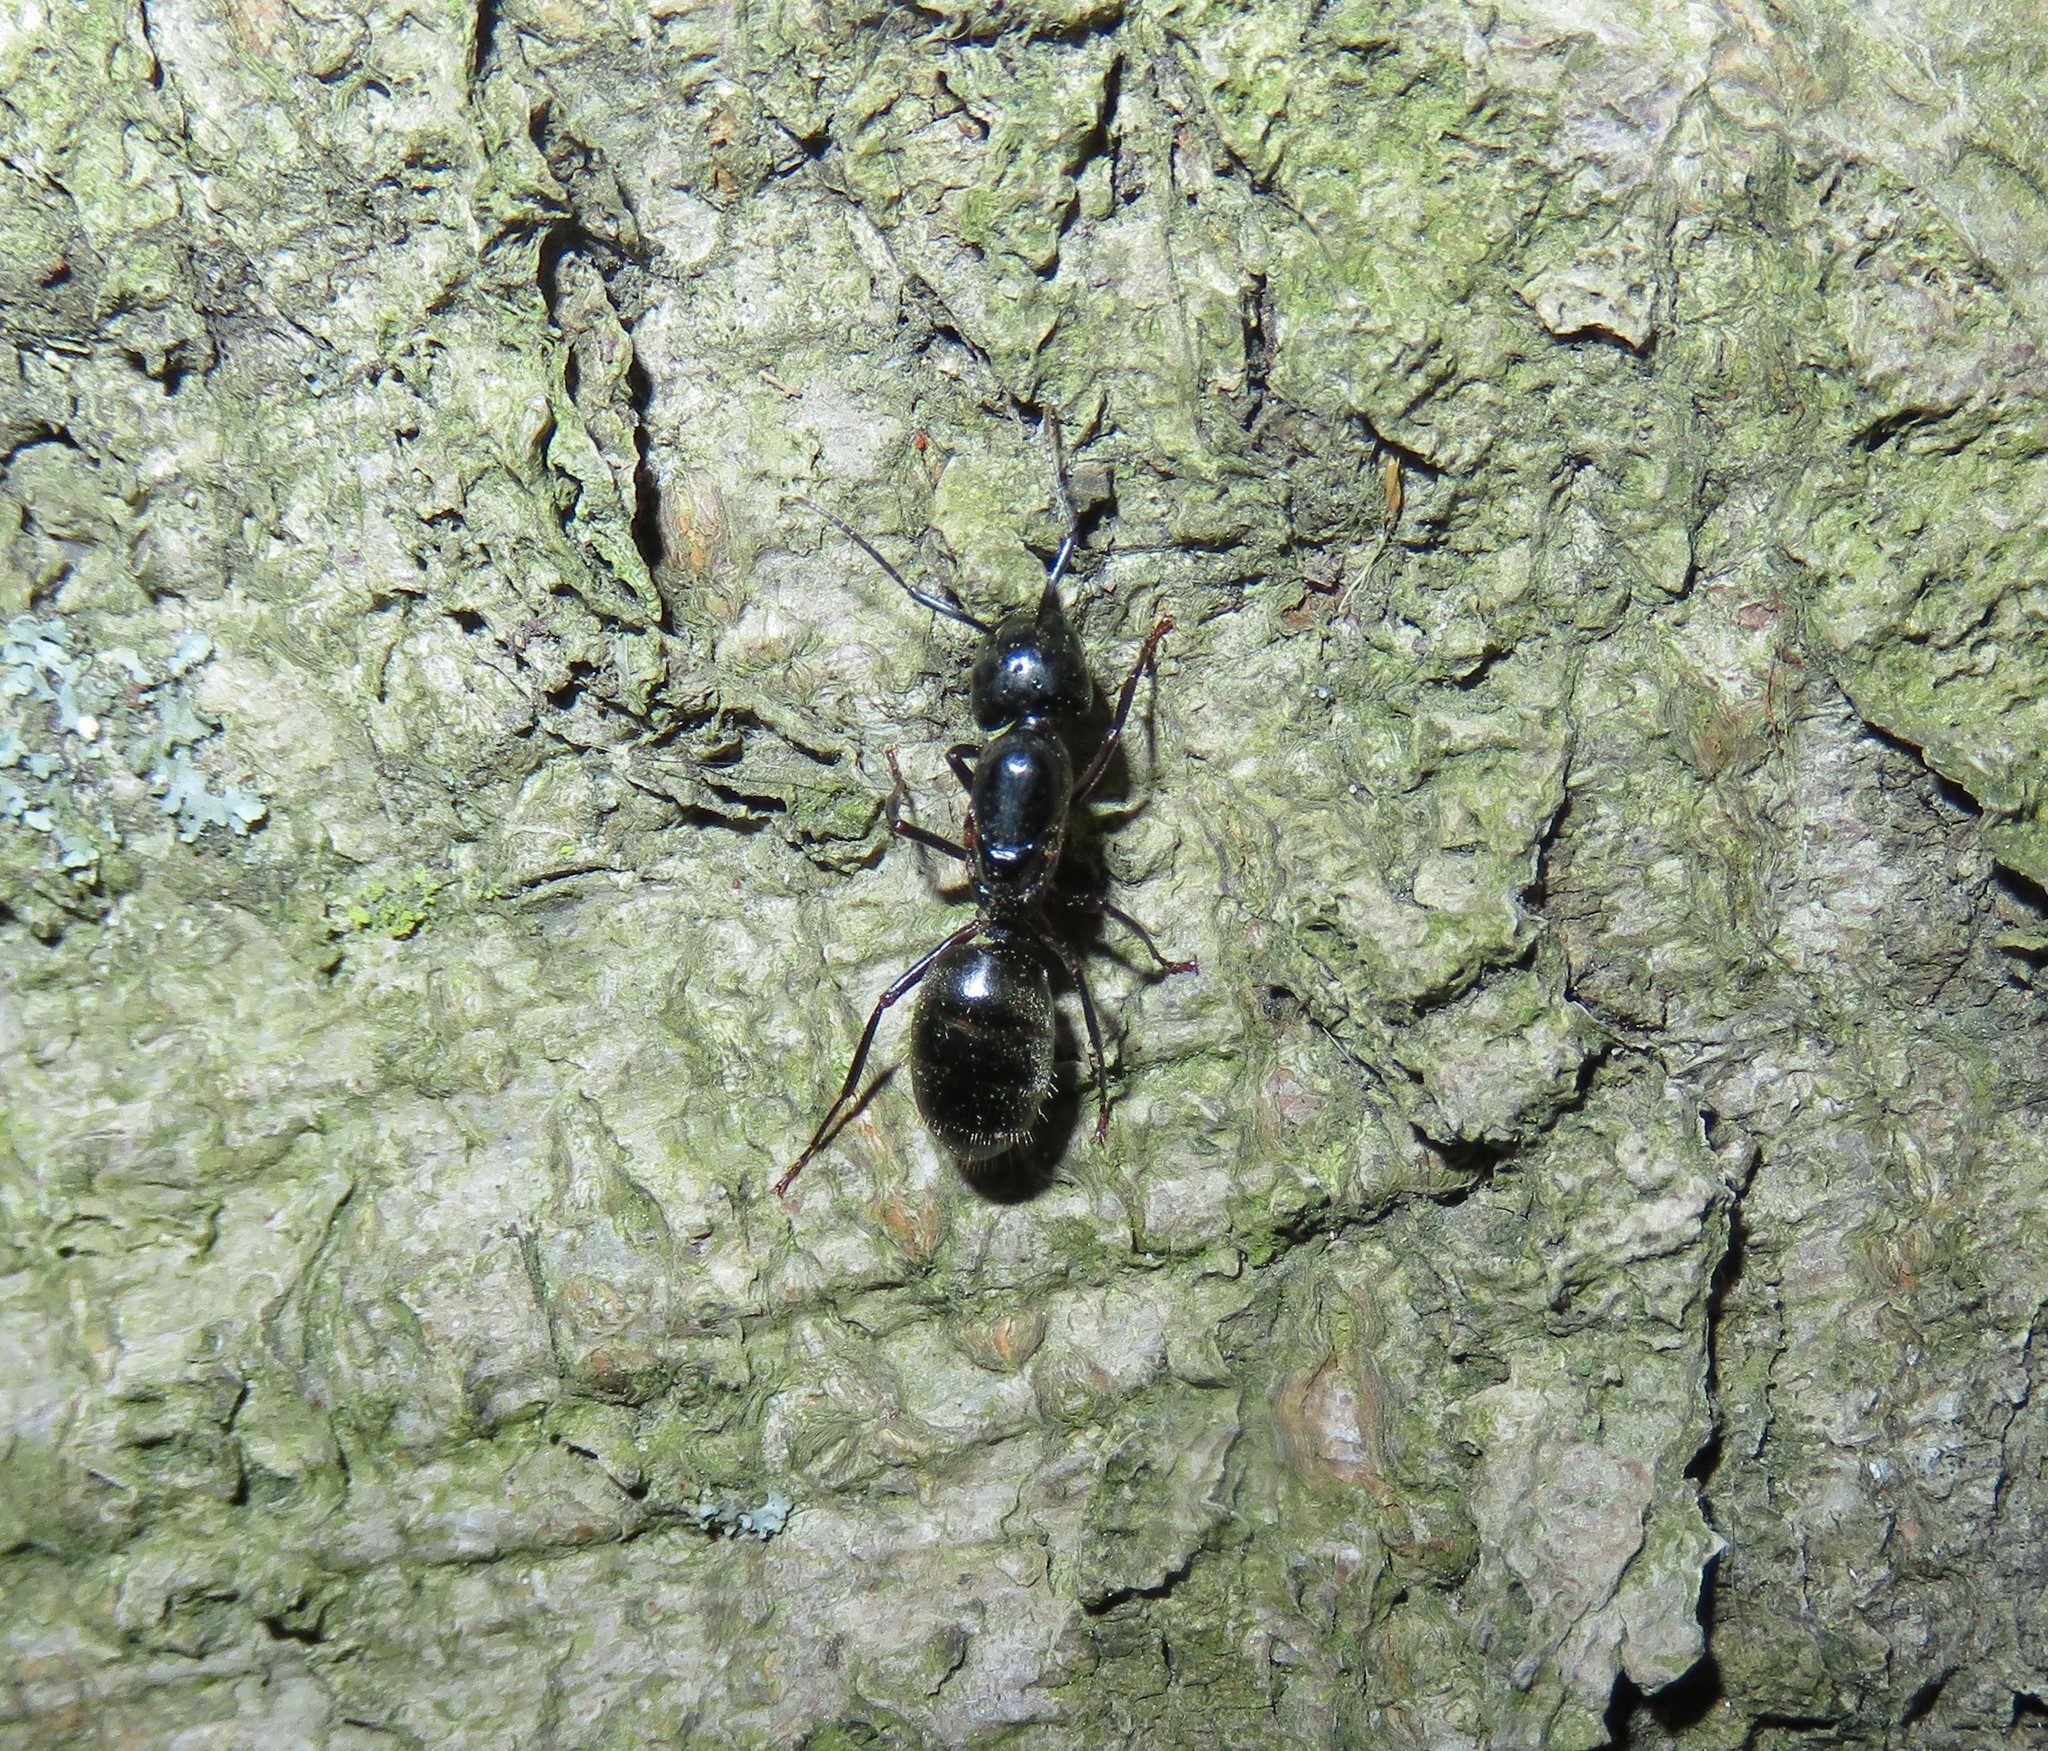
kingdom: Animalia
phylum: Arthropoda
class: Insecta
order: Hymenoptera
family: Formicidae
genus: Camponotus
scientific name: Camponotus pennsylvanicus
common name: Black carpenter ant
